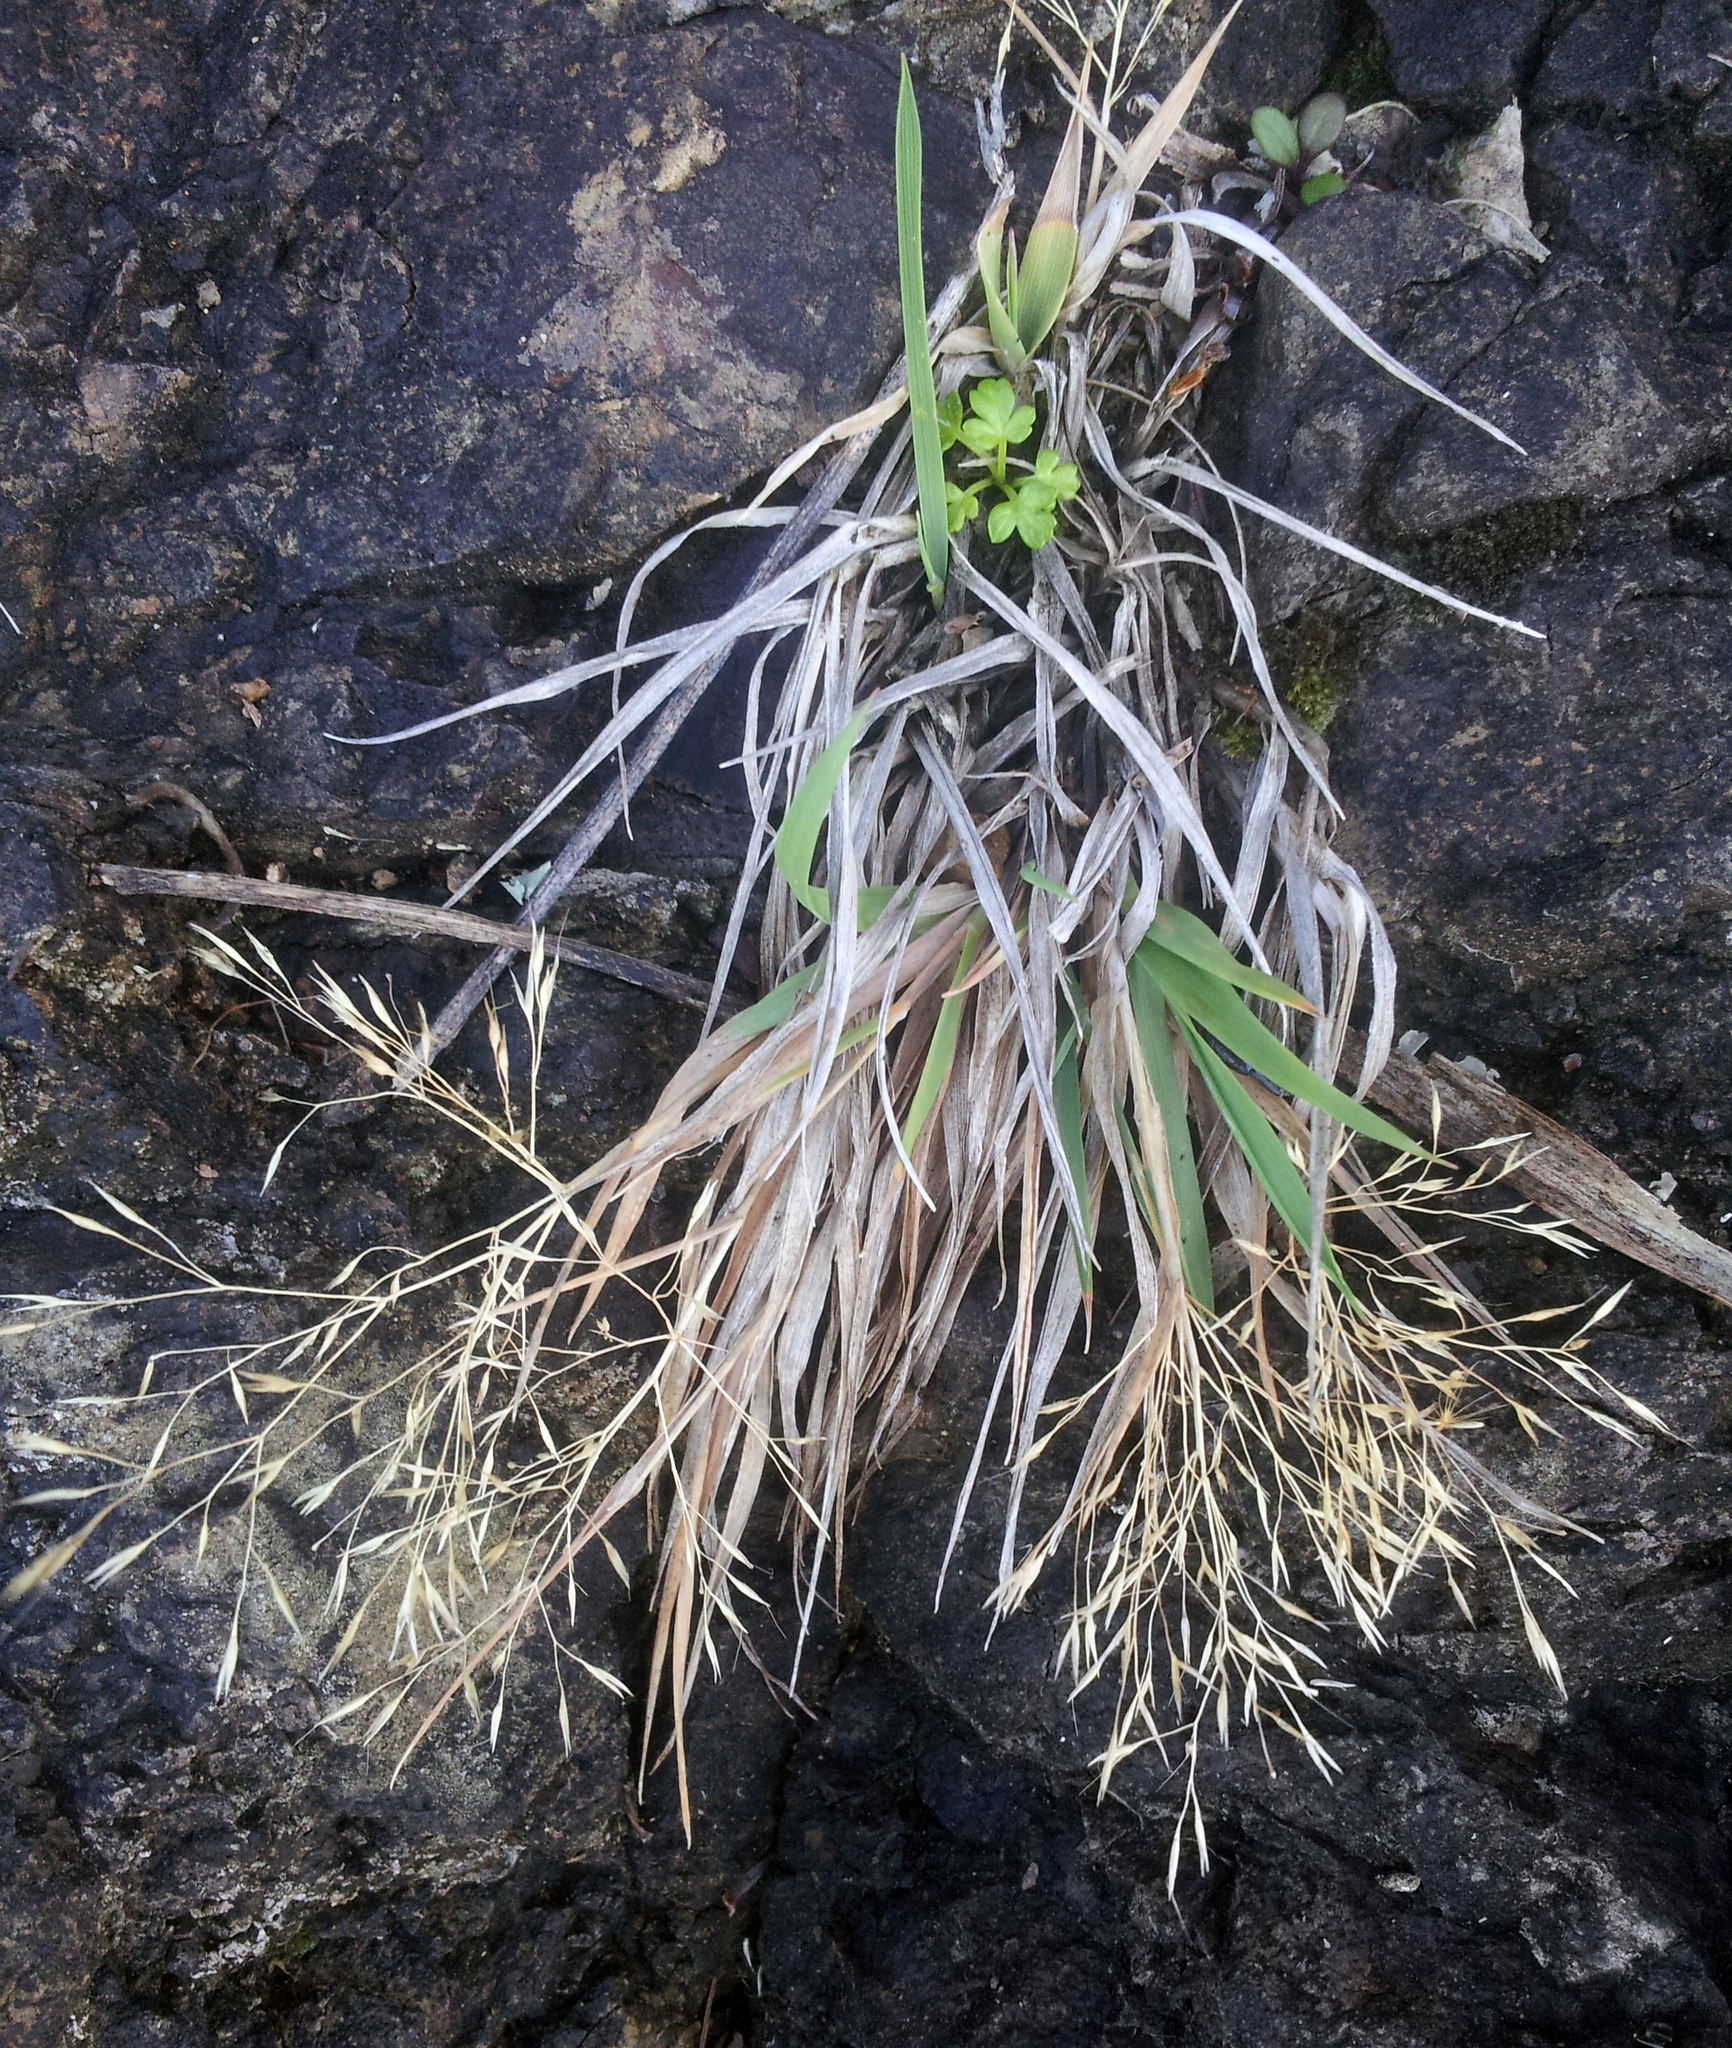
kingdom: Plantae
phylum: Tracheophyta
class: Liliopsida
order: Poales
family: Poaceae
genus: Lachnagrostis
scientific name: Lachnagrostis billardierei
